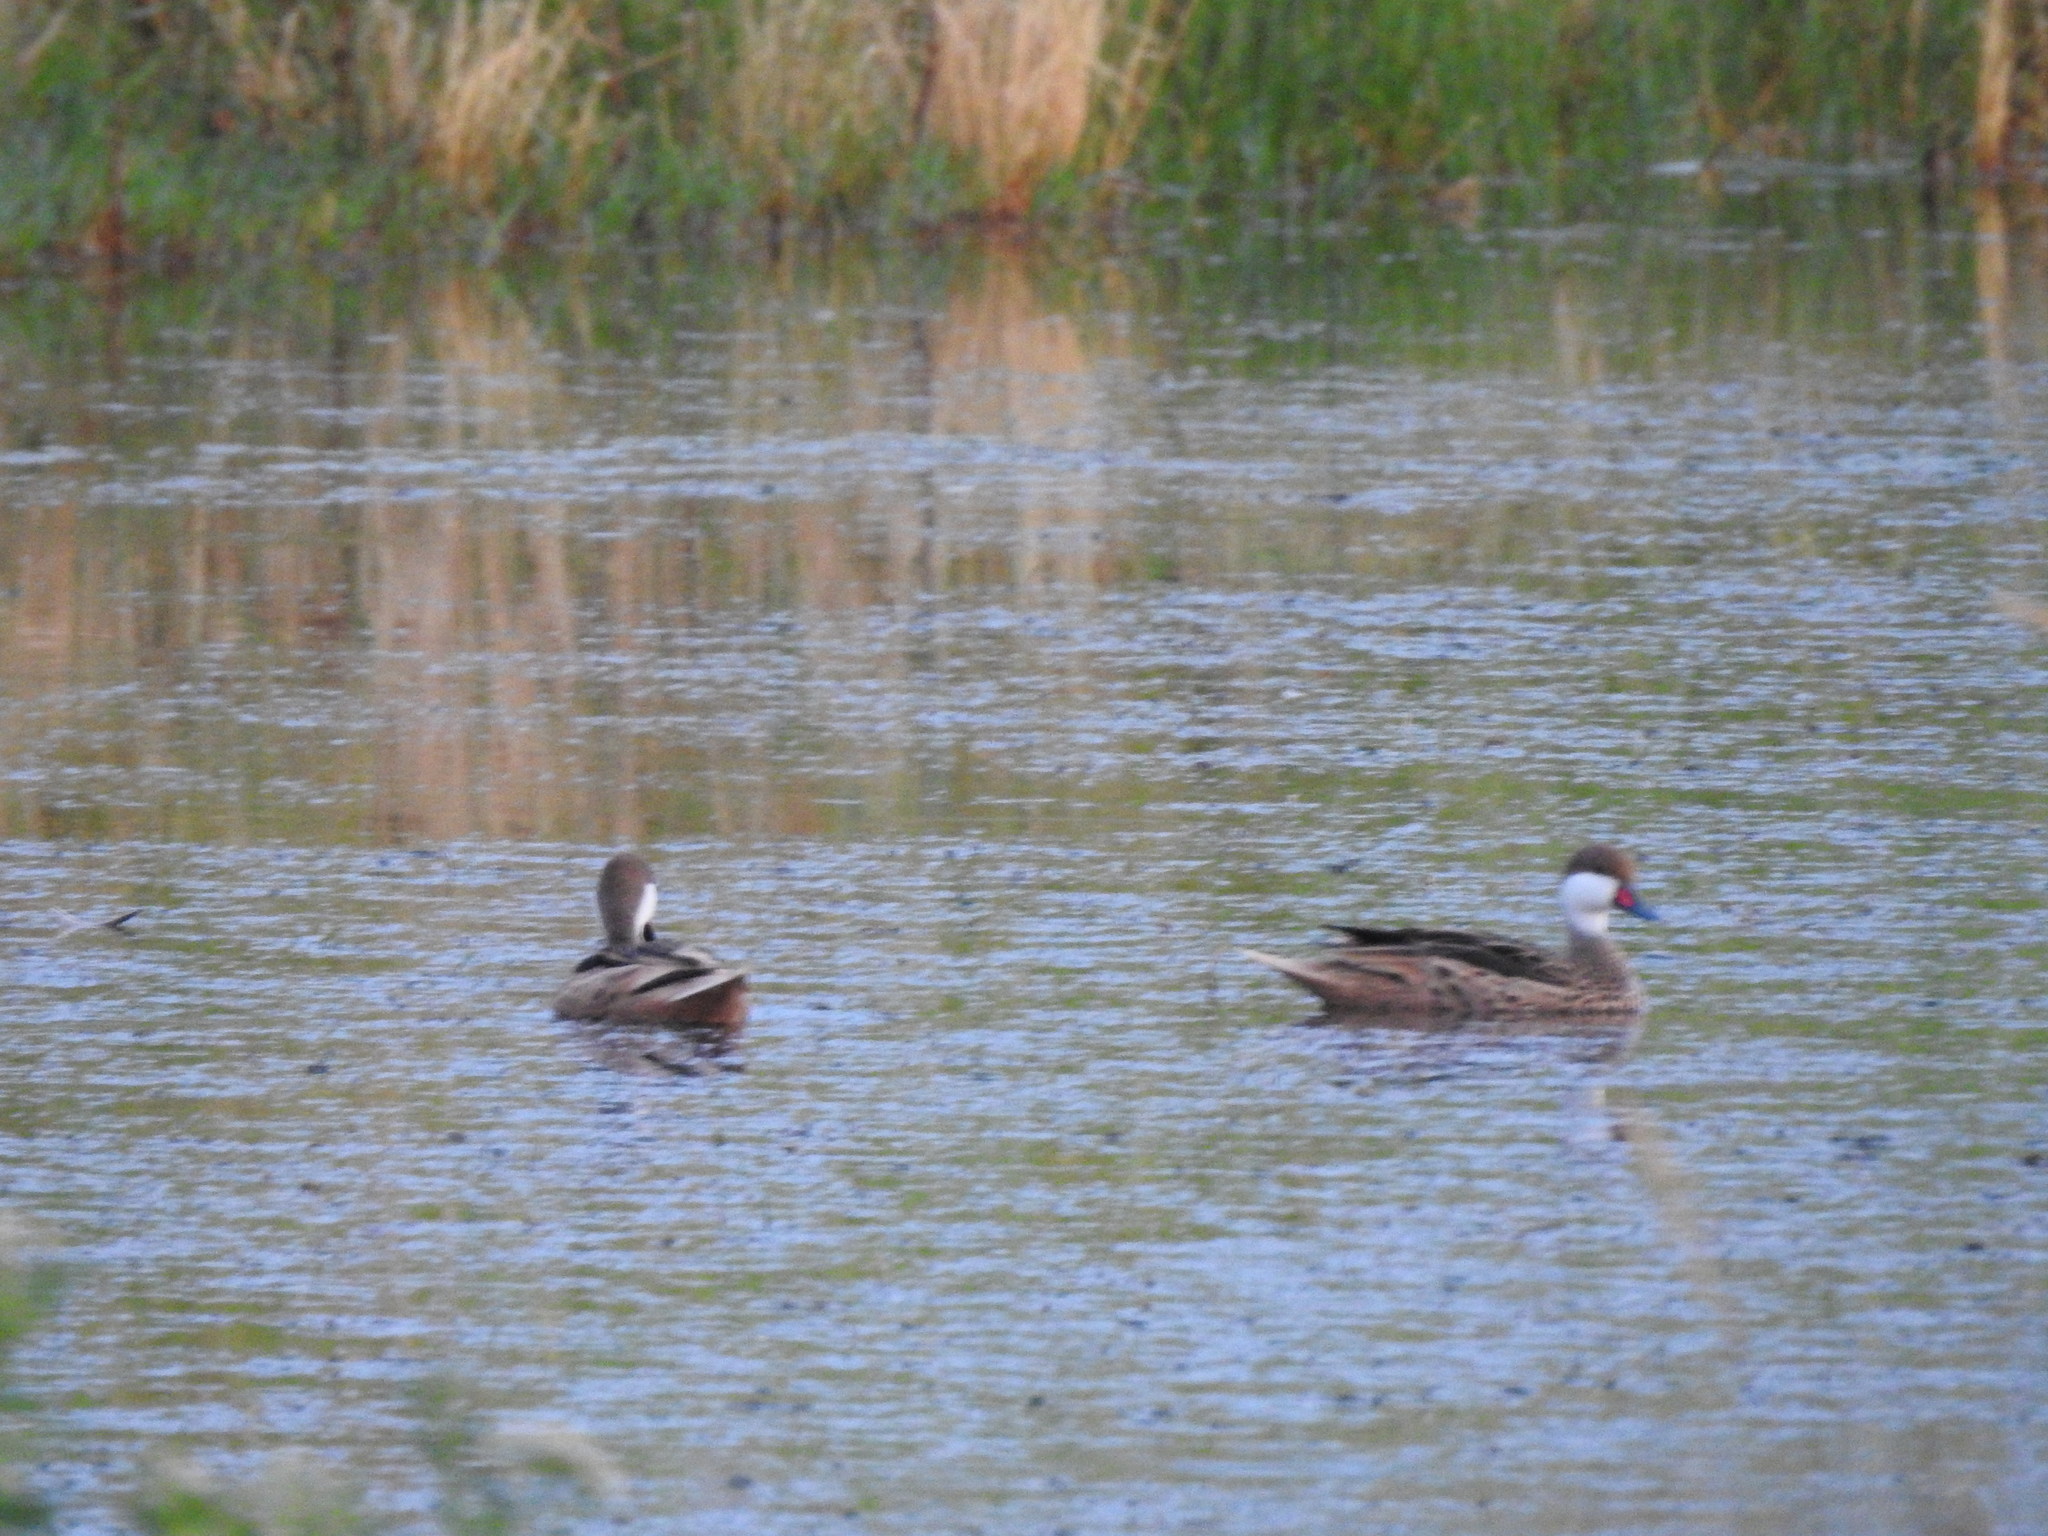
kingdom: Animalia
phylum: Chordata
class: Aves
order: Anseriformes
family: Anatidae
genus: Anas
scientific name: Anas bahamensis
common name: White-cheeked pintail
